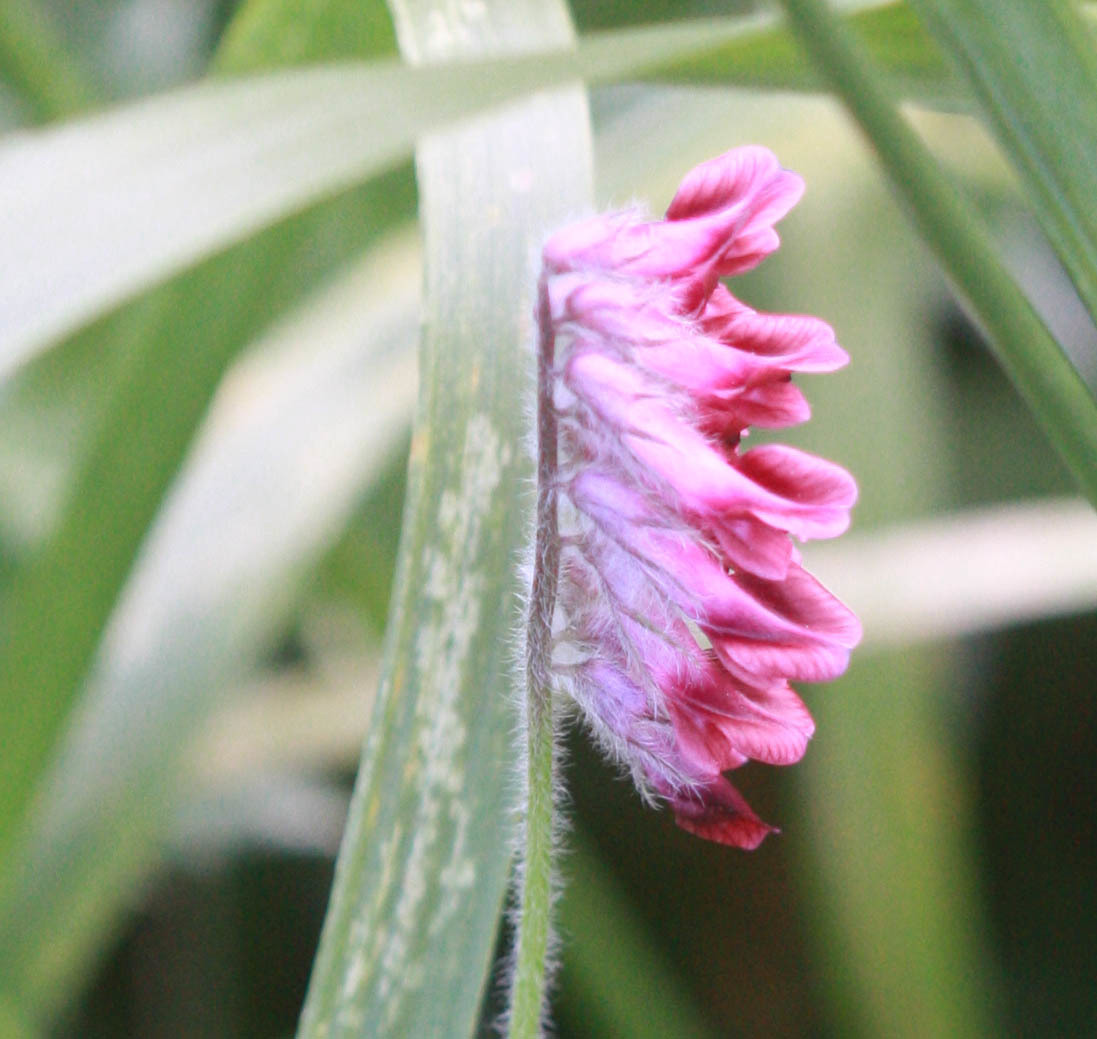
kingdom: Plantae
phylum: Tracheophyta
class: Magnoliopsida
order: Fabales
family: Fabaceae
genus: Vicia
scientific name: Vicia benghalensis
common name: Purple vetch
